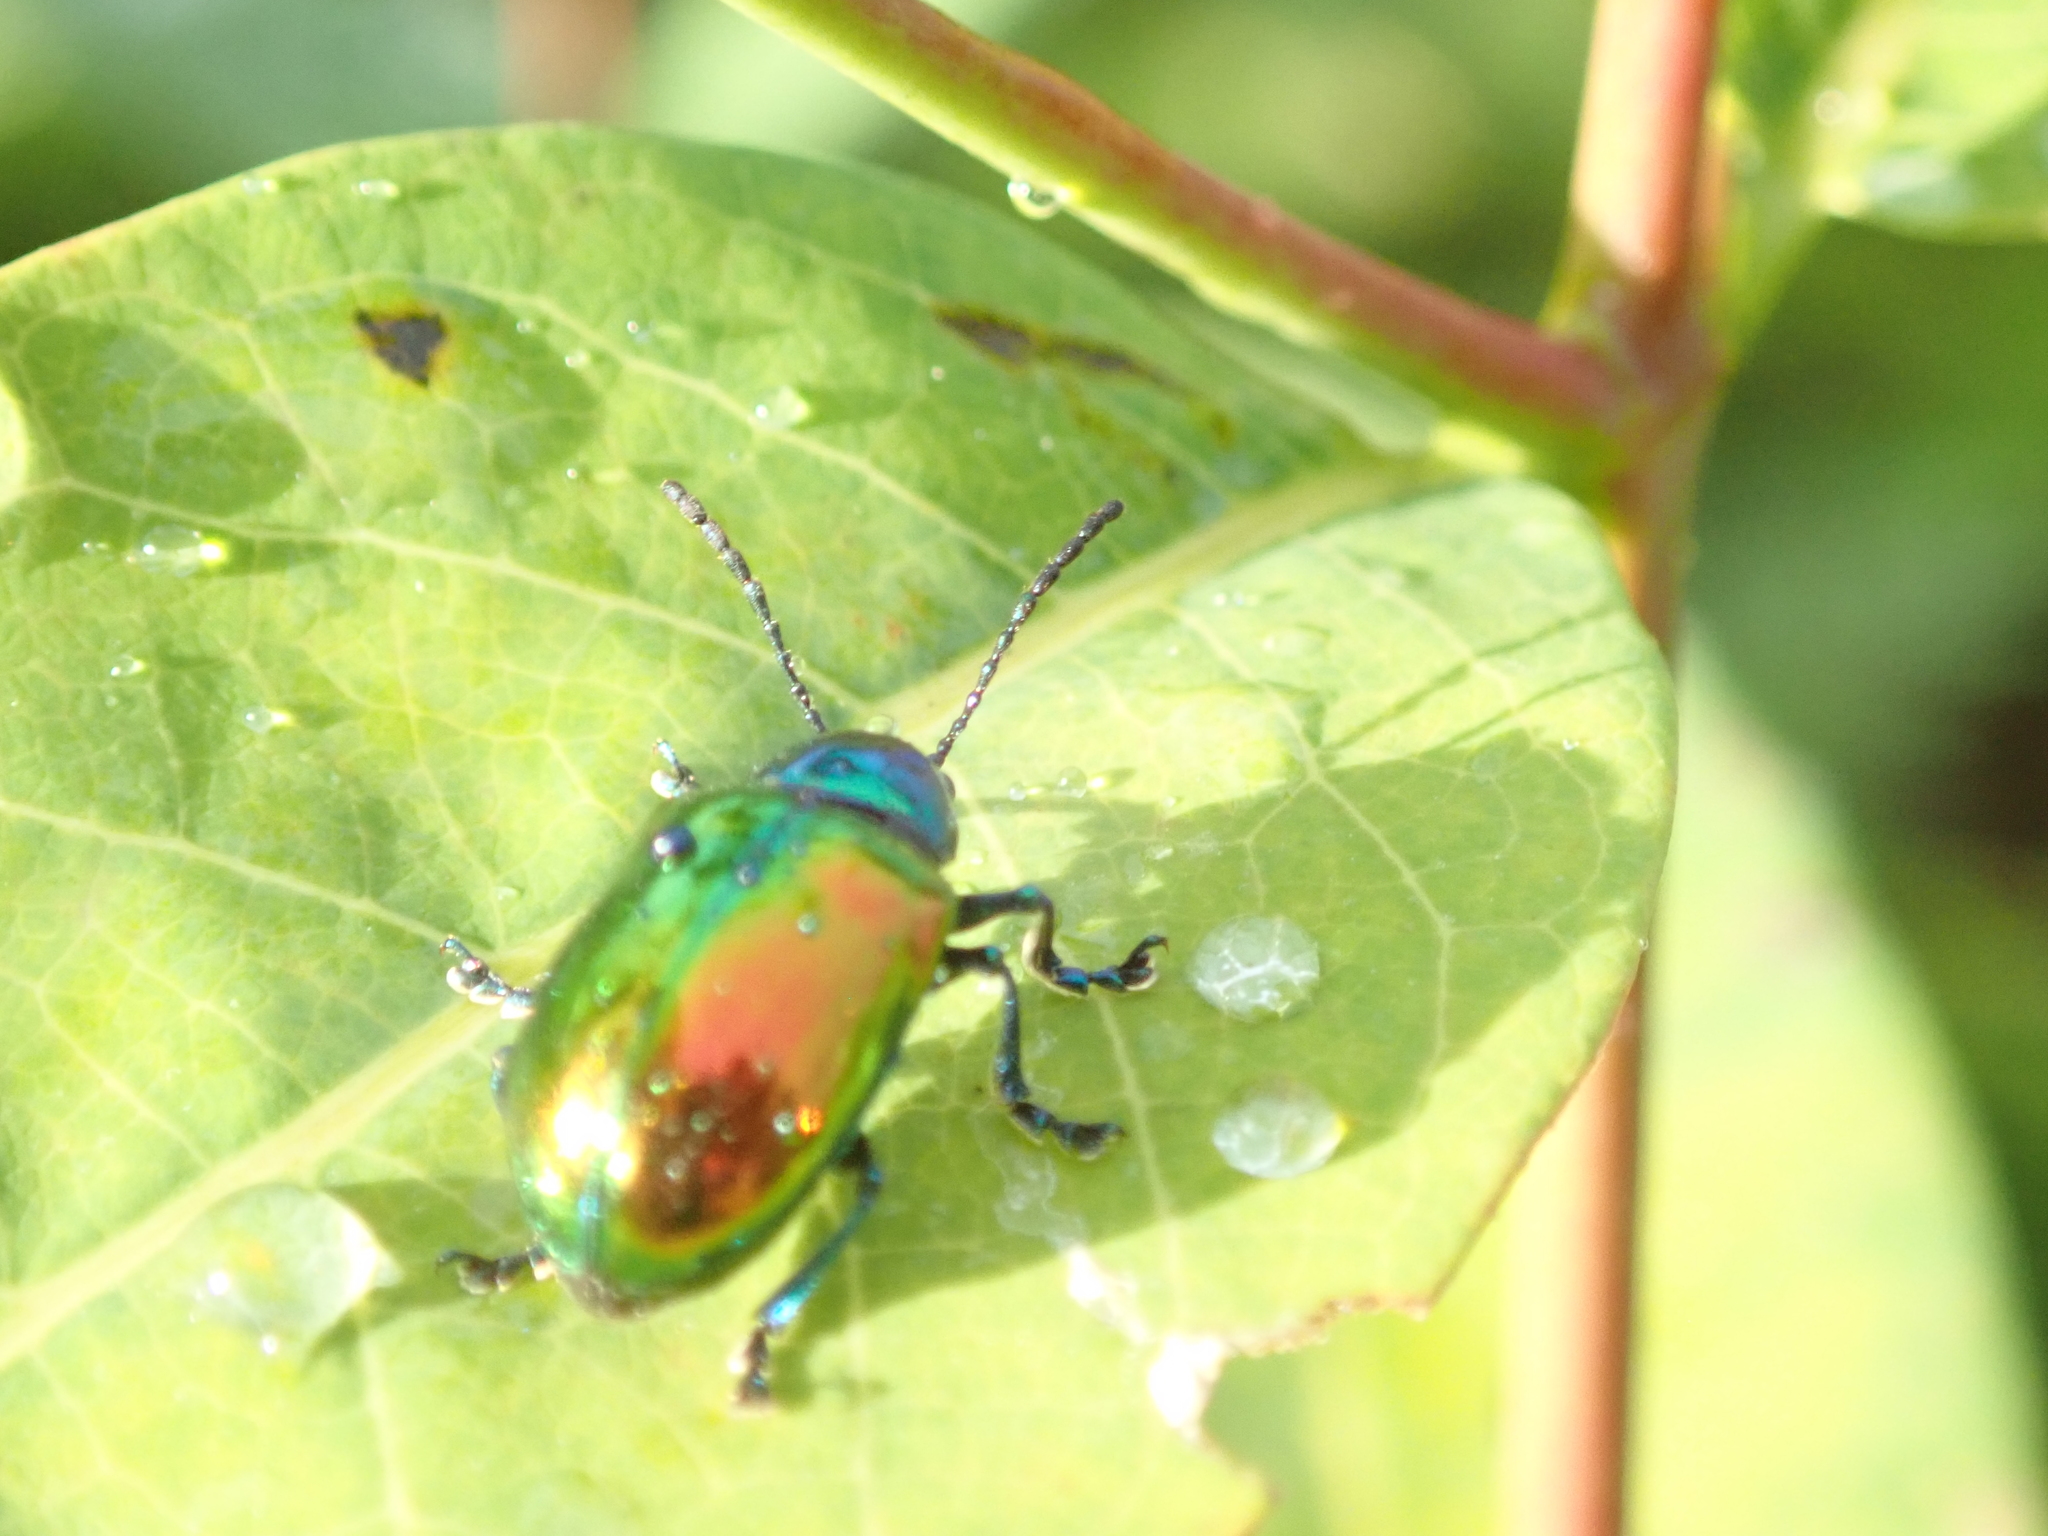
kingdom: Animalia
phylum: Arthropoda
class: Insecta
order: Coleoptera
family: Chrysomelidae
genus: Chrysochus
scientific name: Chrysochus auratus
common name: Dogbane leaf beetle
